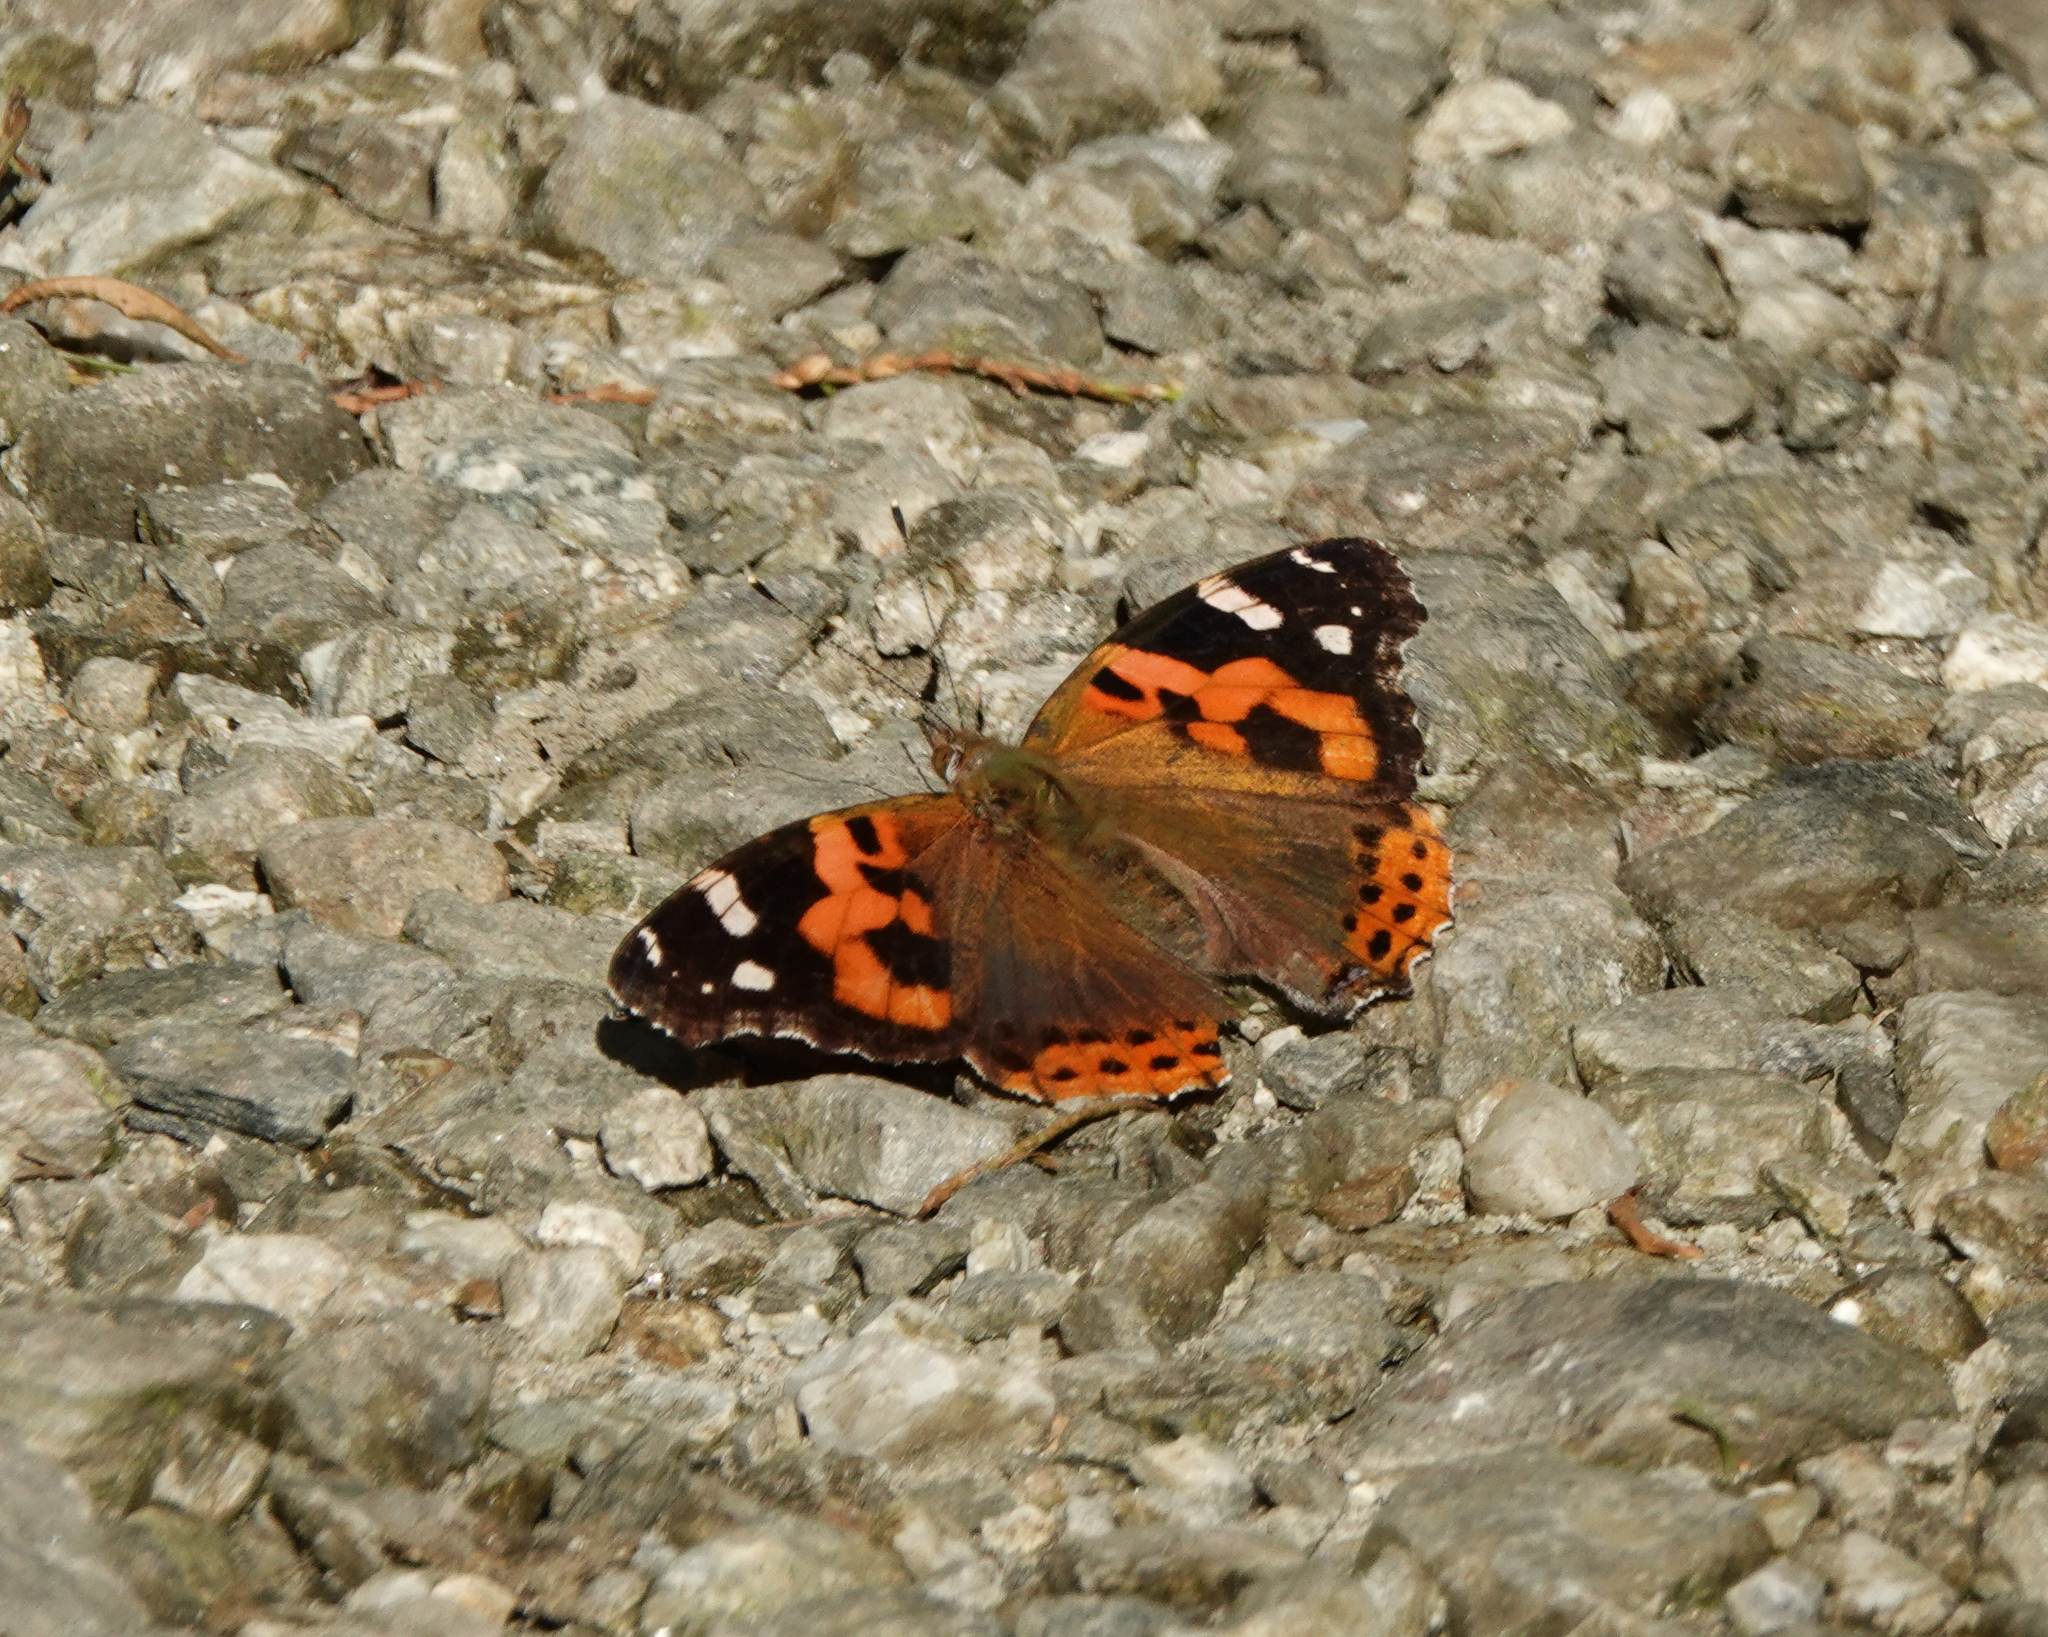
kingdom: Animalia
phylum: Arthropoda
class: Insecta
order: Lepidoptera
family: Nymphalidae
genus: Vanessa
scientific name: Vanessa indica
